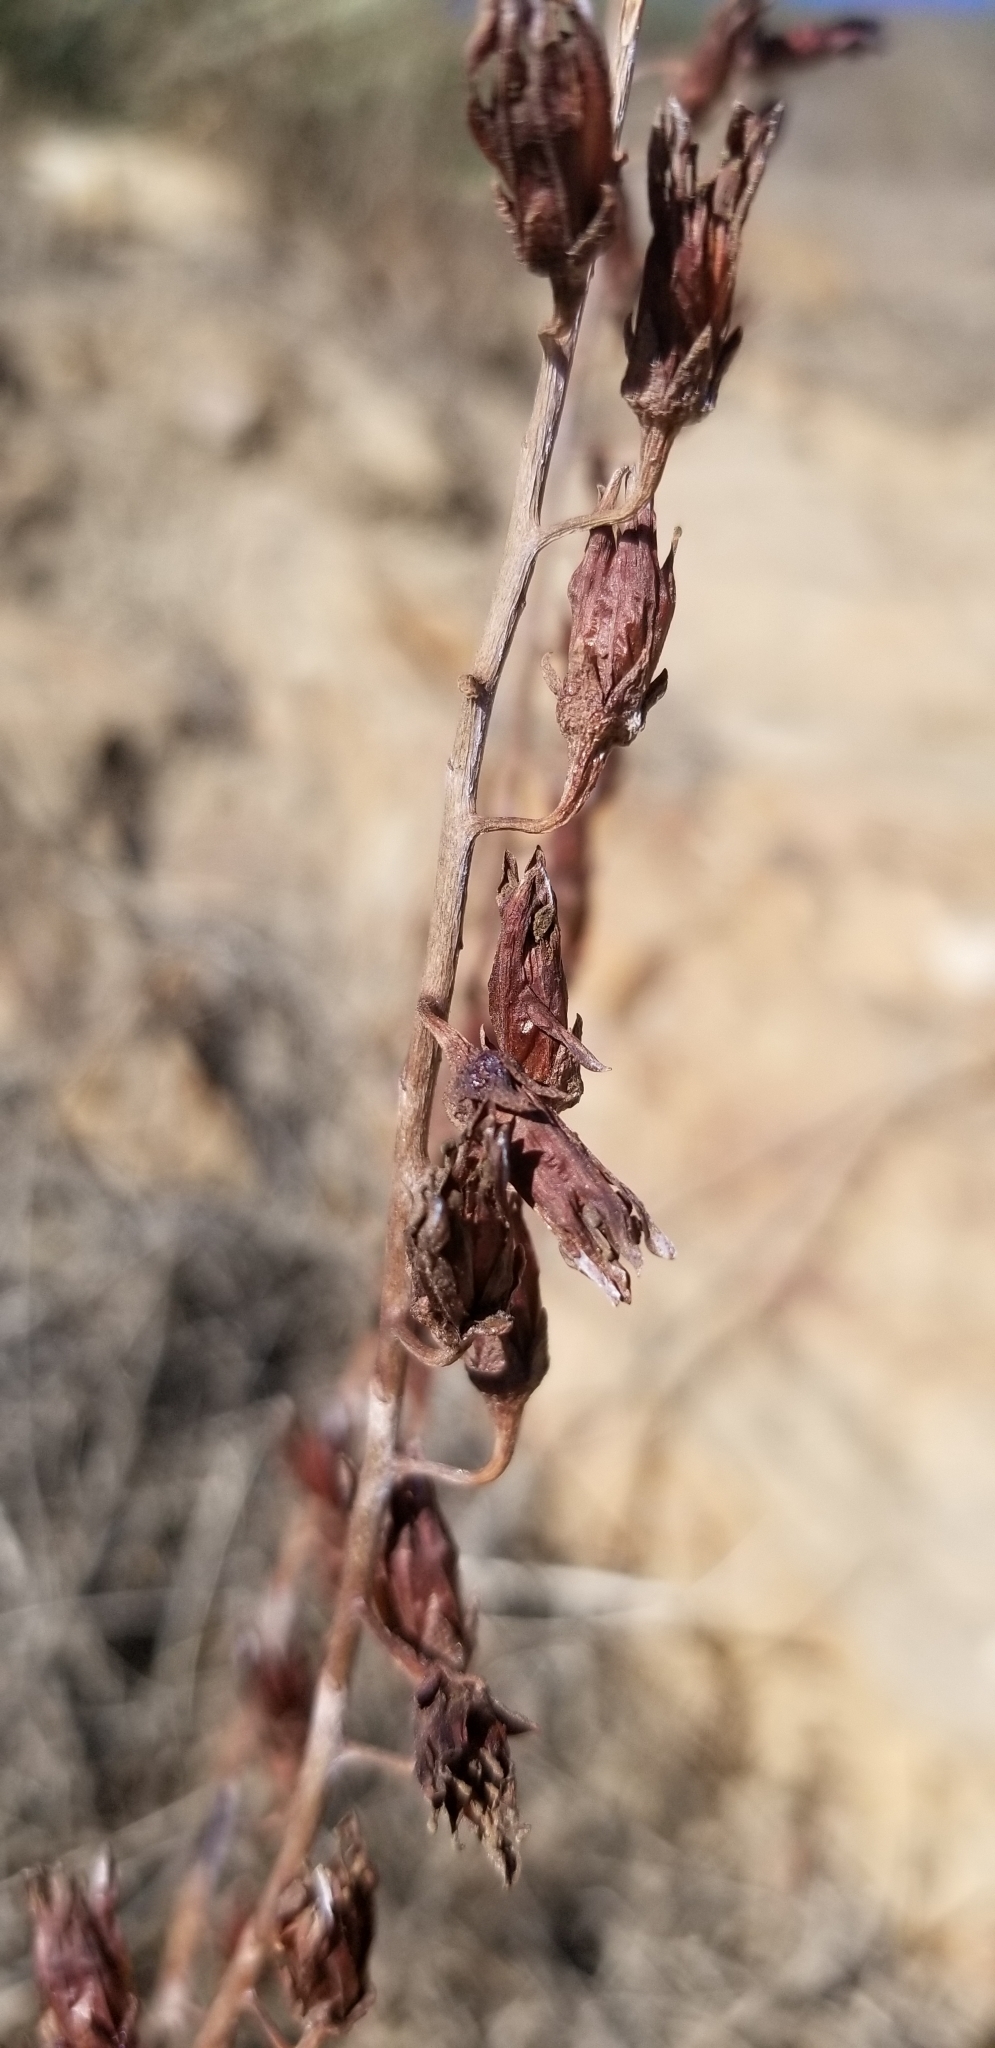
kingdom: Plantae
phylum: Tracheophyta
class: Magnoliopsida
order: Saxifragales
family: Crassulaceae
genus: Dudleya
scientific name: Dudleya pulverulenta
